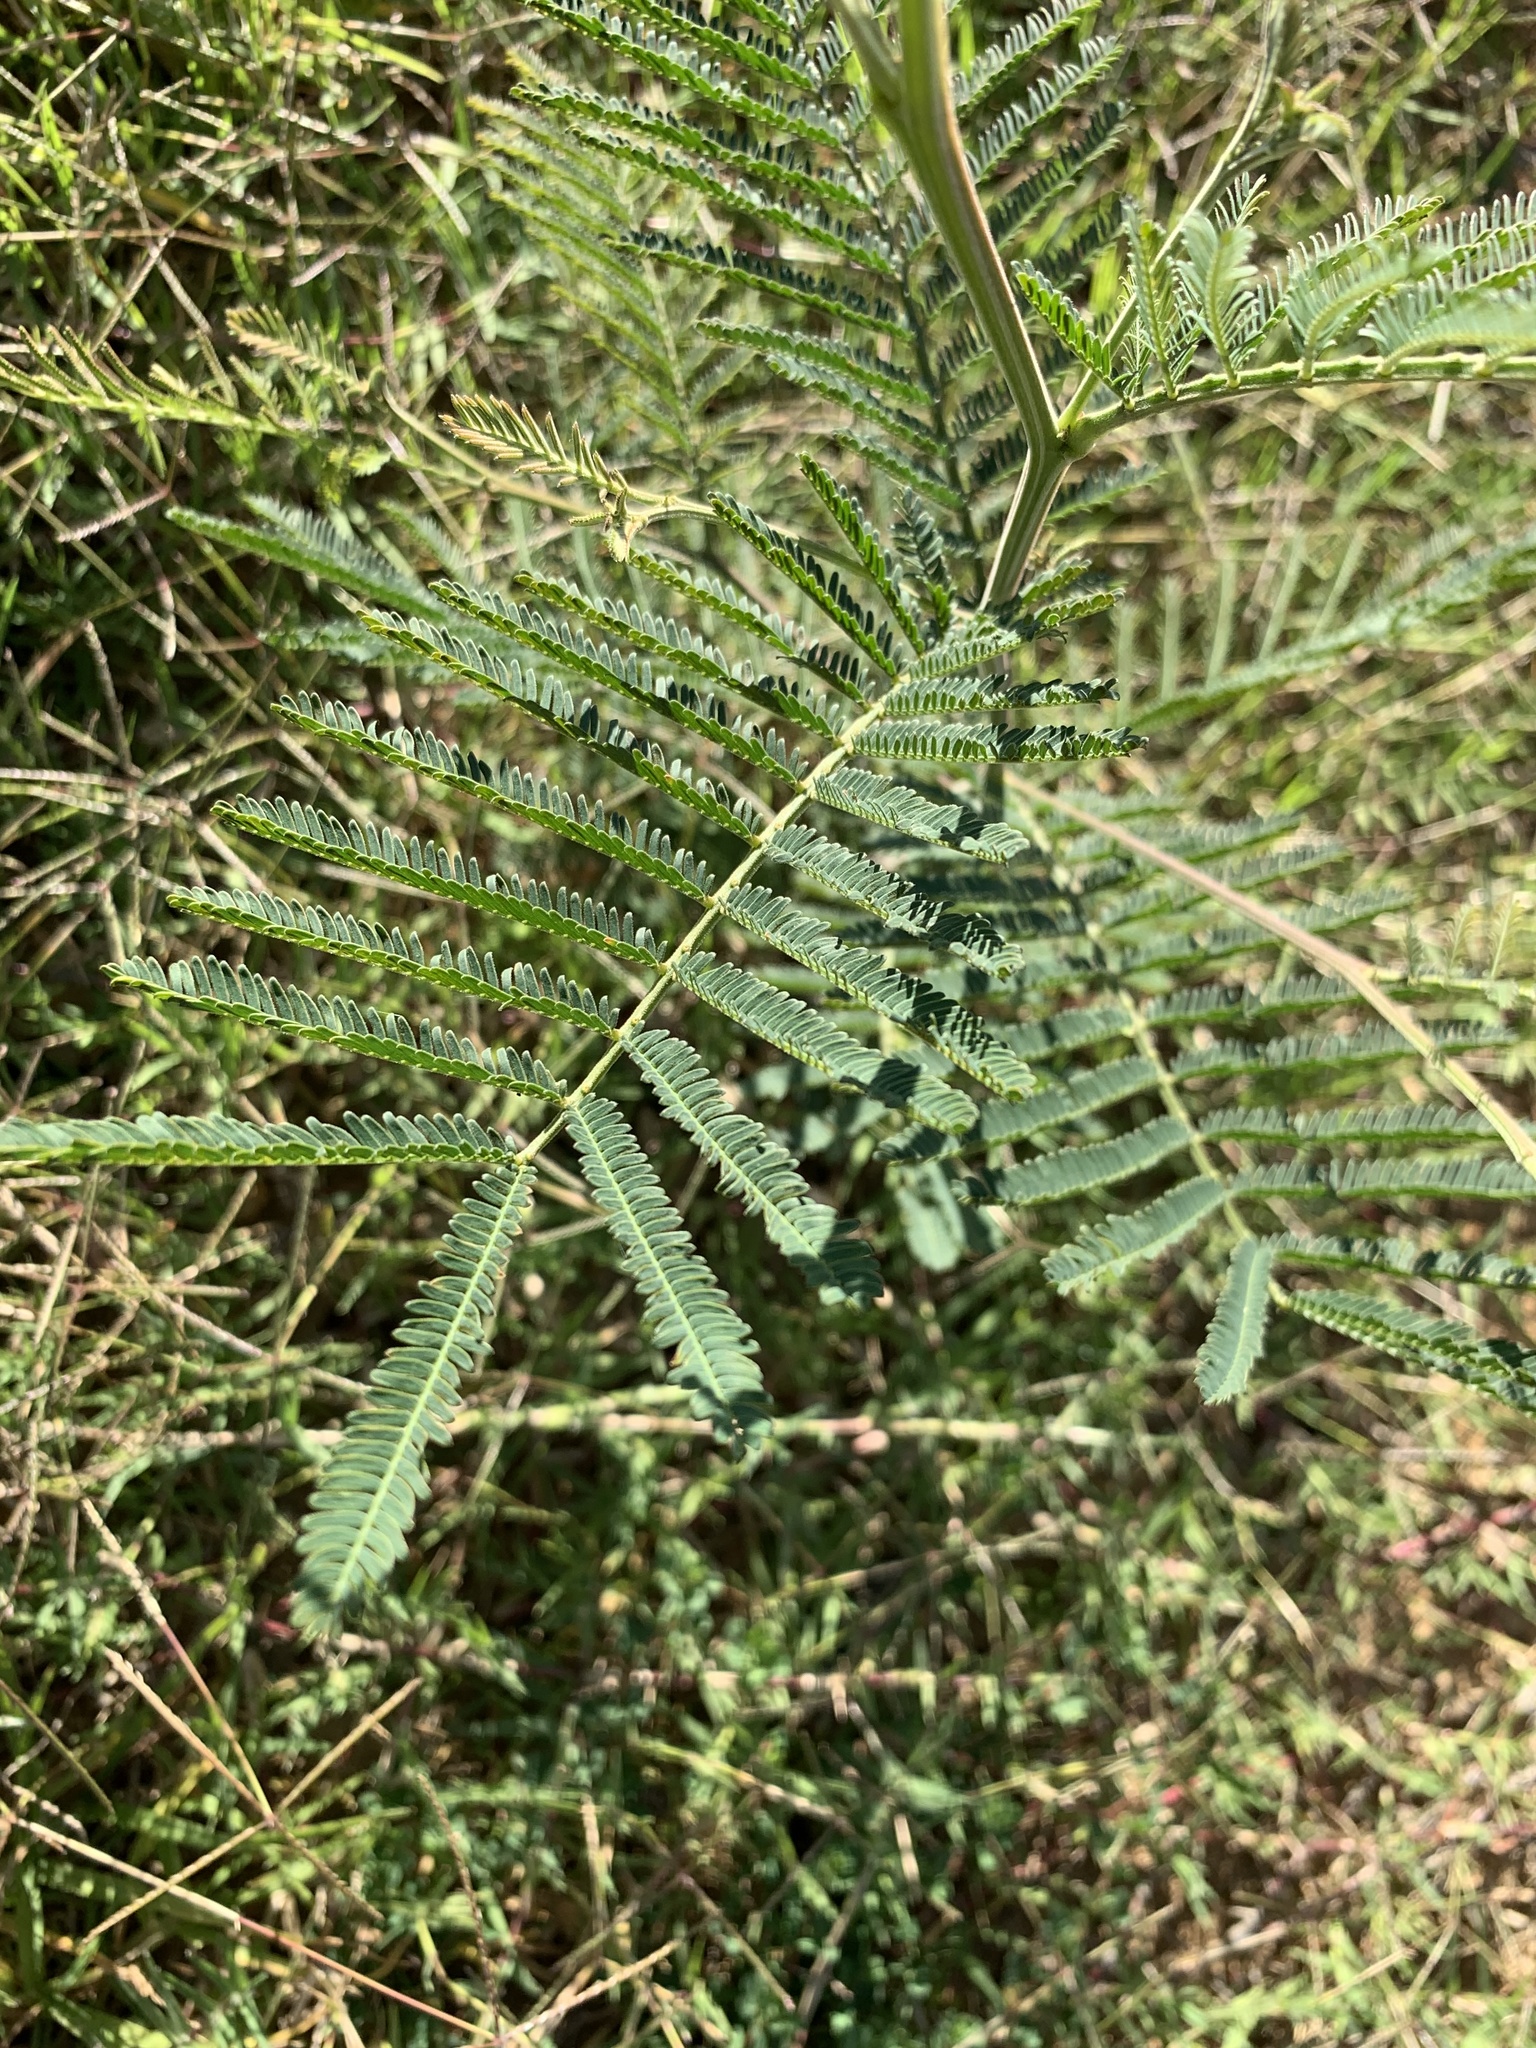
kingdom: Plantae
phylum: Tracheophyta
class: Magnoliopsida
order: Fabales
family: Fabaceae
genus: Acacia
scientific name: Acacia mearnsii
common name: Black wattle
